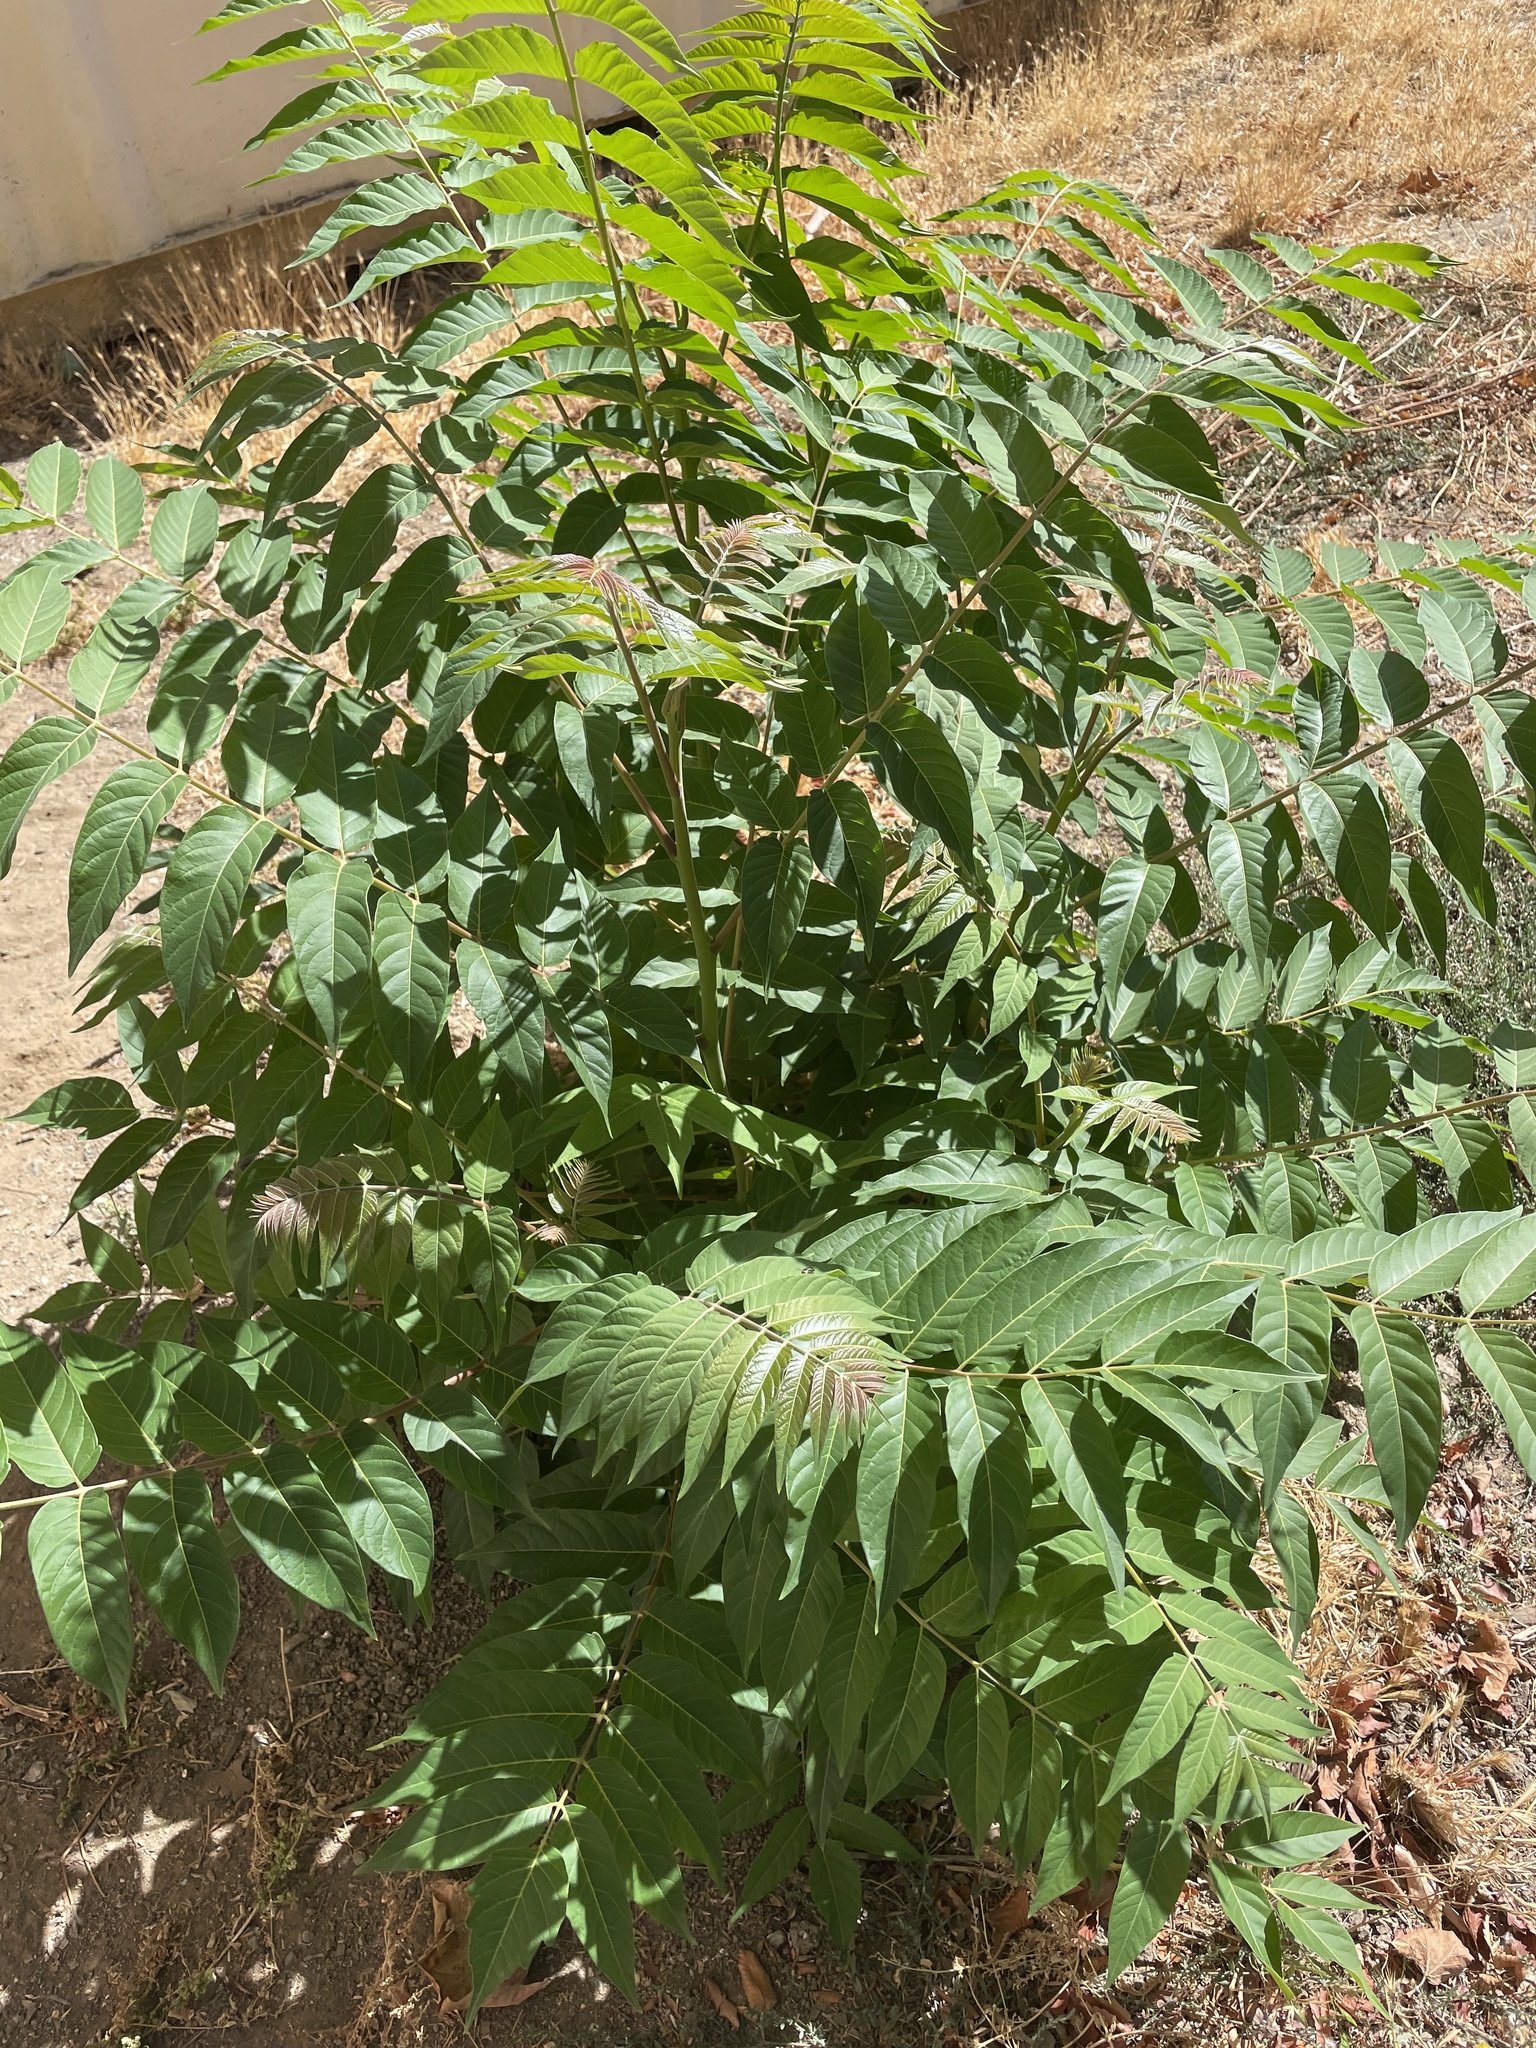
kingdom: Plantae
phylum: Tracheophyta
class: Magnoliopsida
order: Sapindales
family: Simaroubaceae
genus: Ailanthus
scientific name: Ailanthus altissima
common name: Tree-of-heaven
